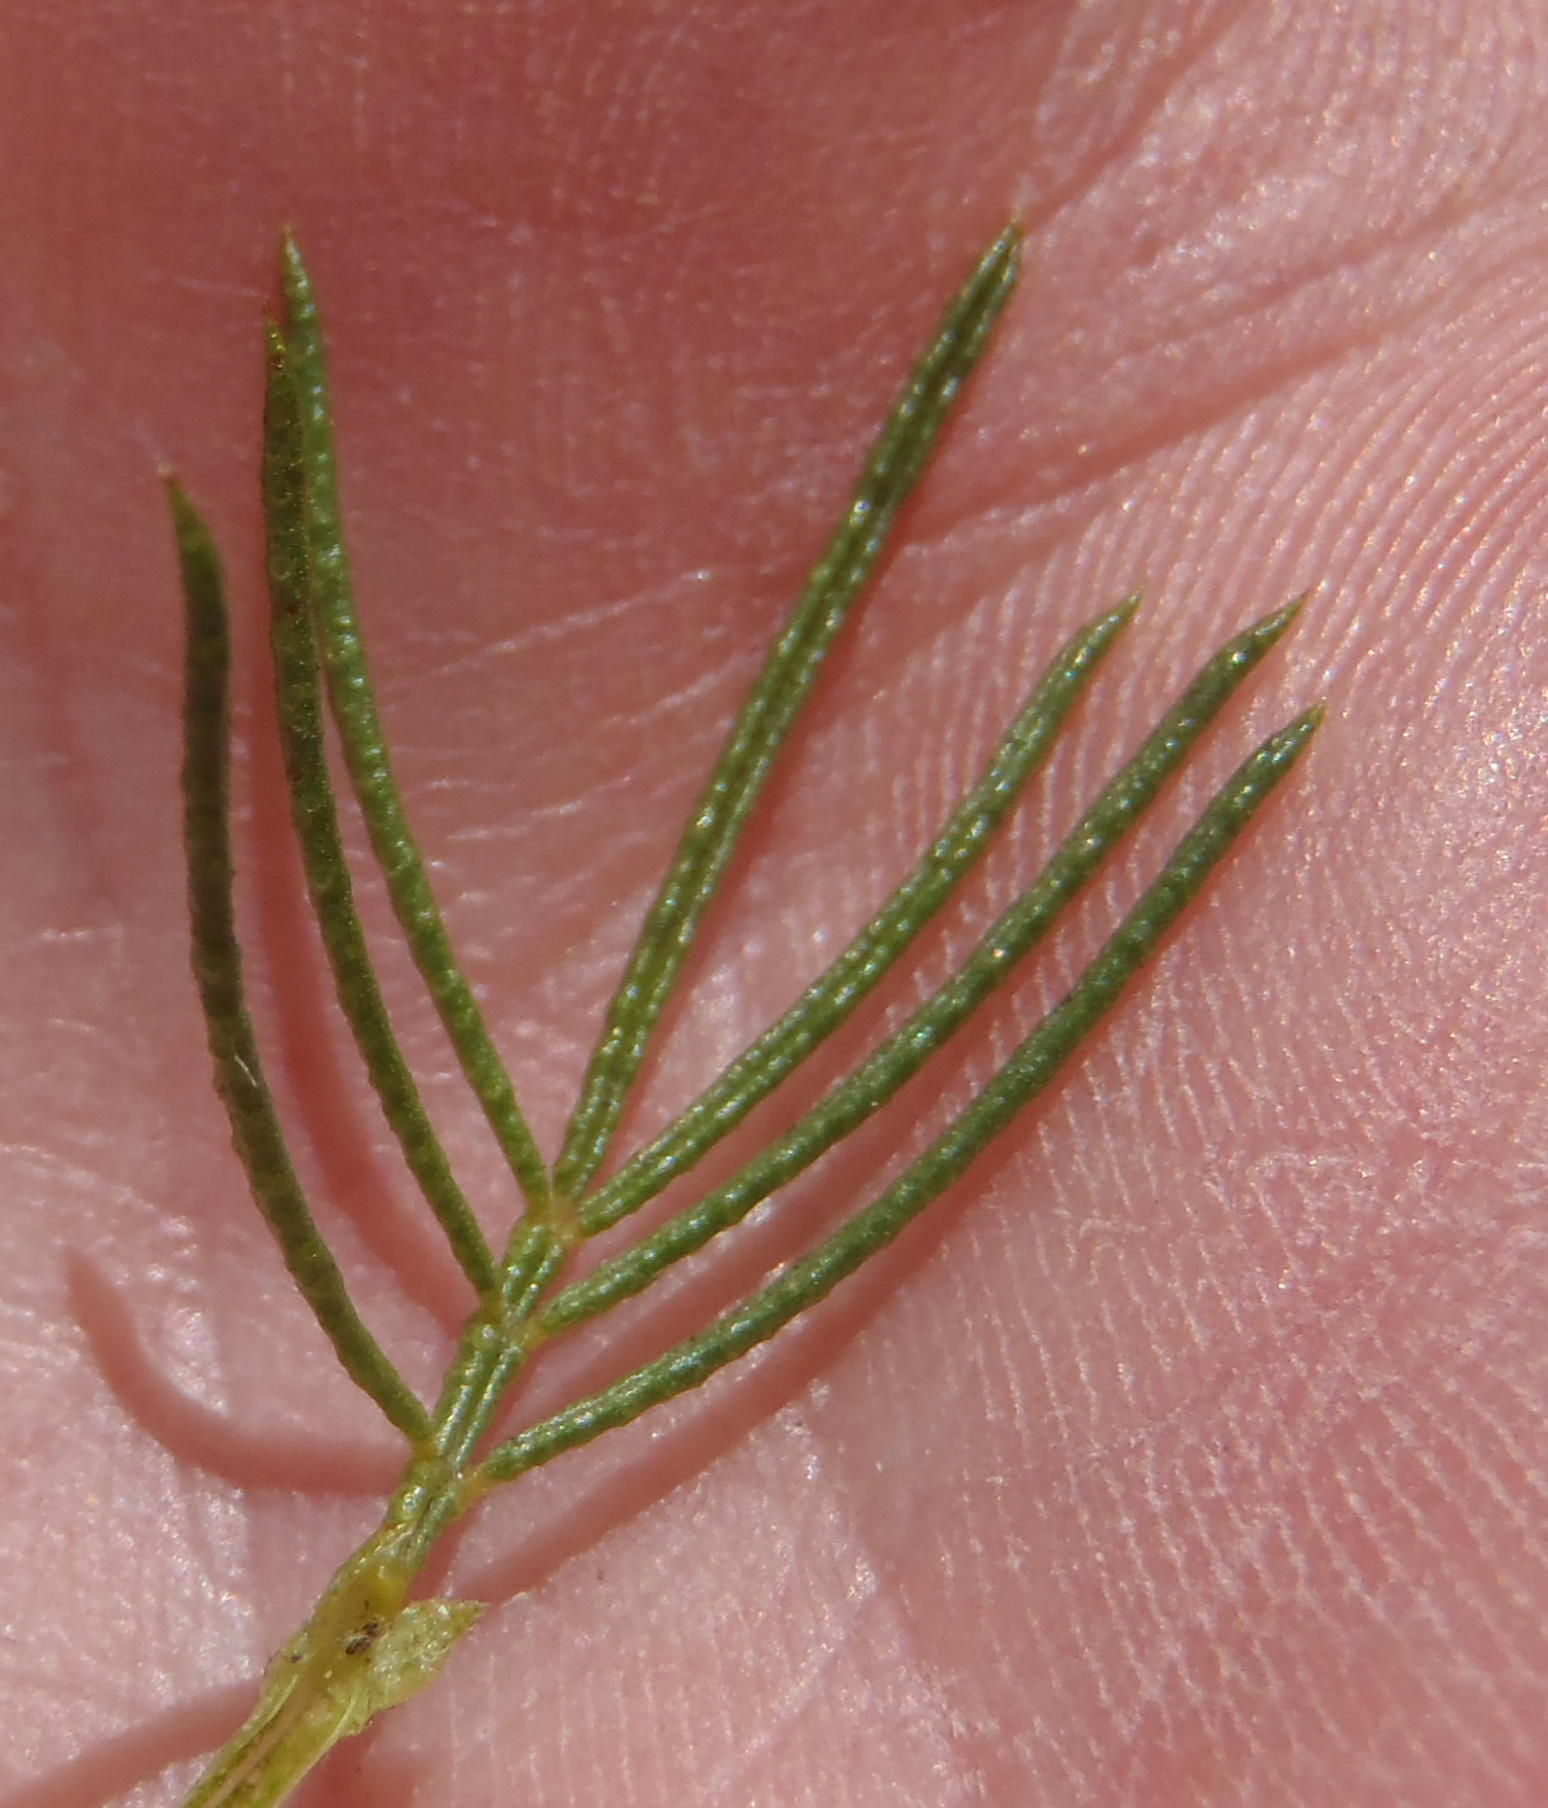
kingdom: Plantae
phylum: Tracheophyta
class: Magnoliopsida
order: Fabales
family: Fabaceae
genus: Psoralea
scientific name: Psoralea kougaensis
